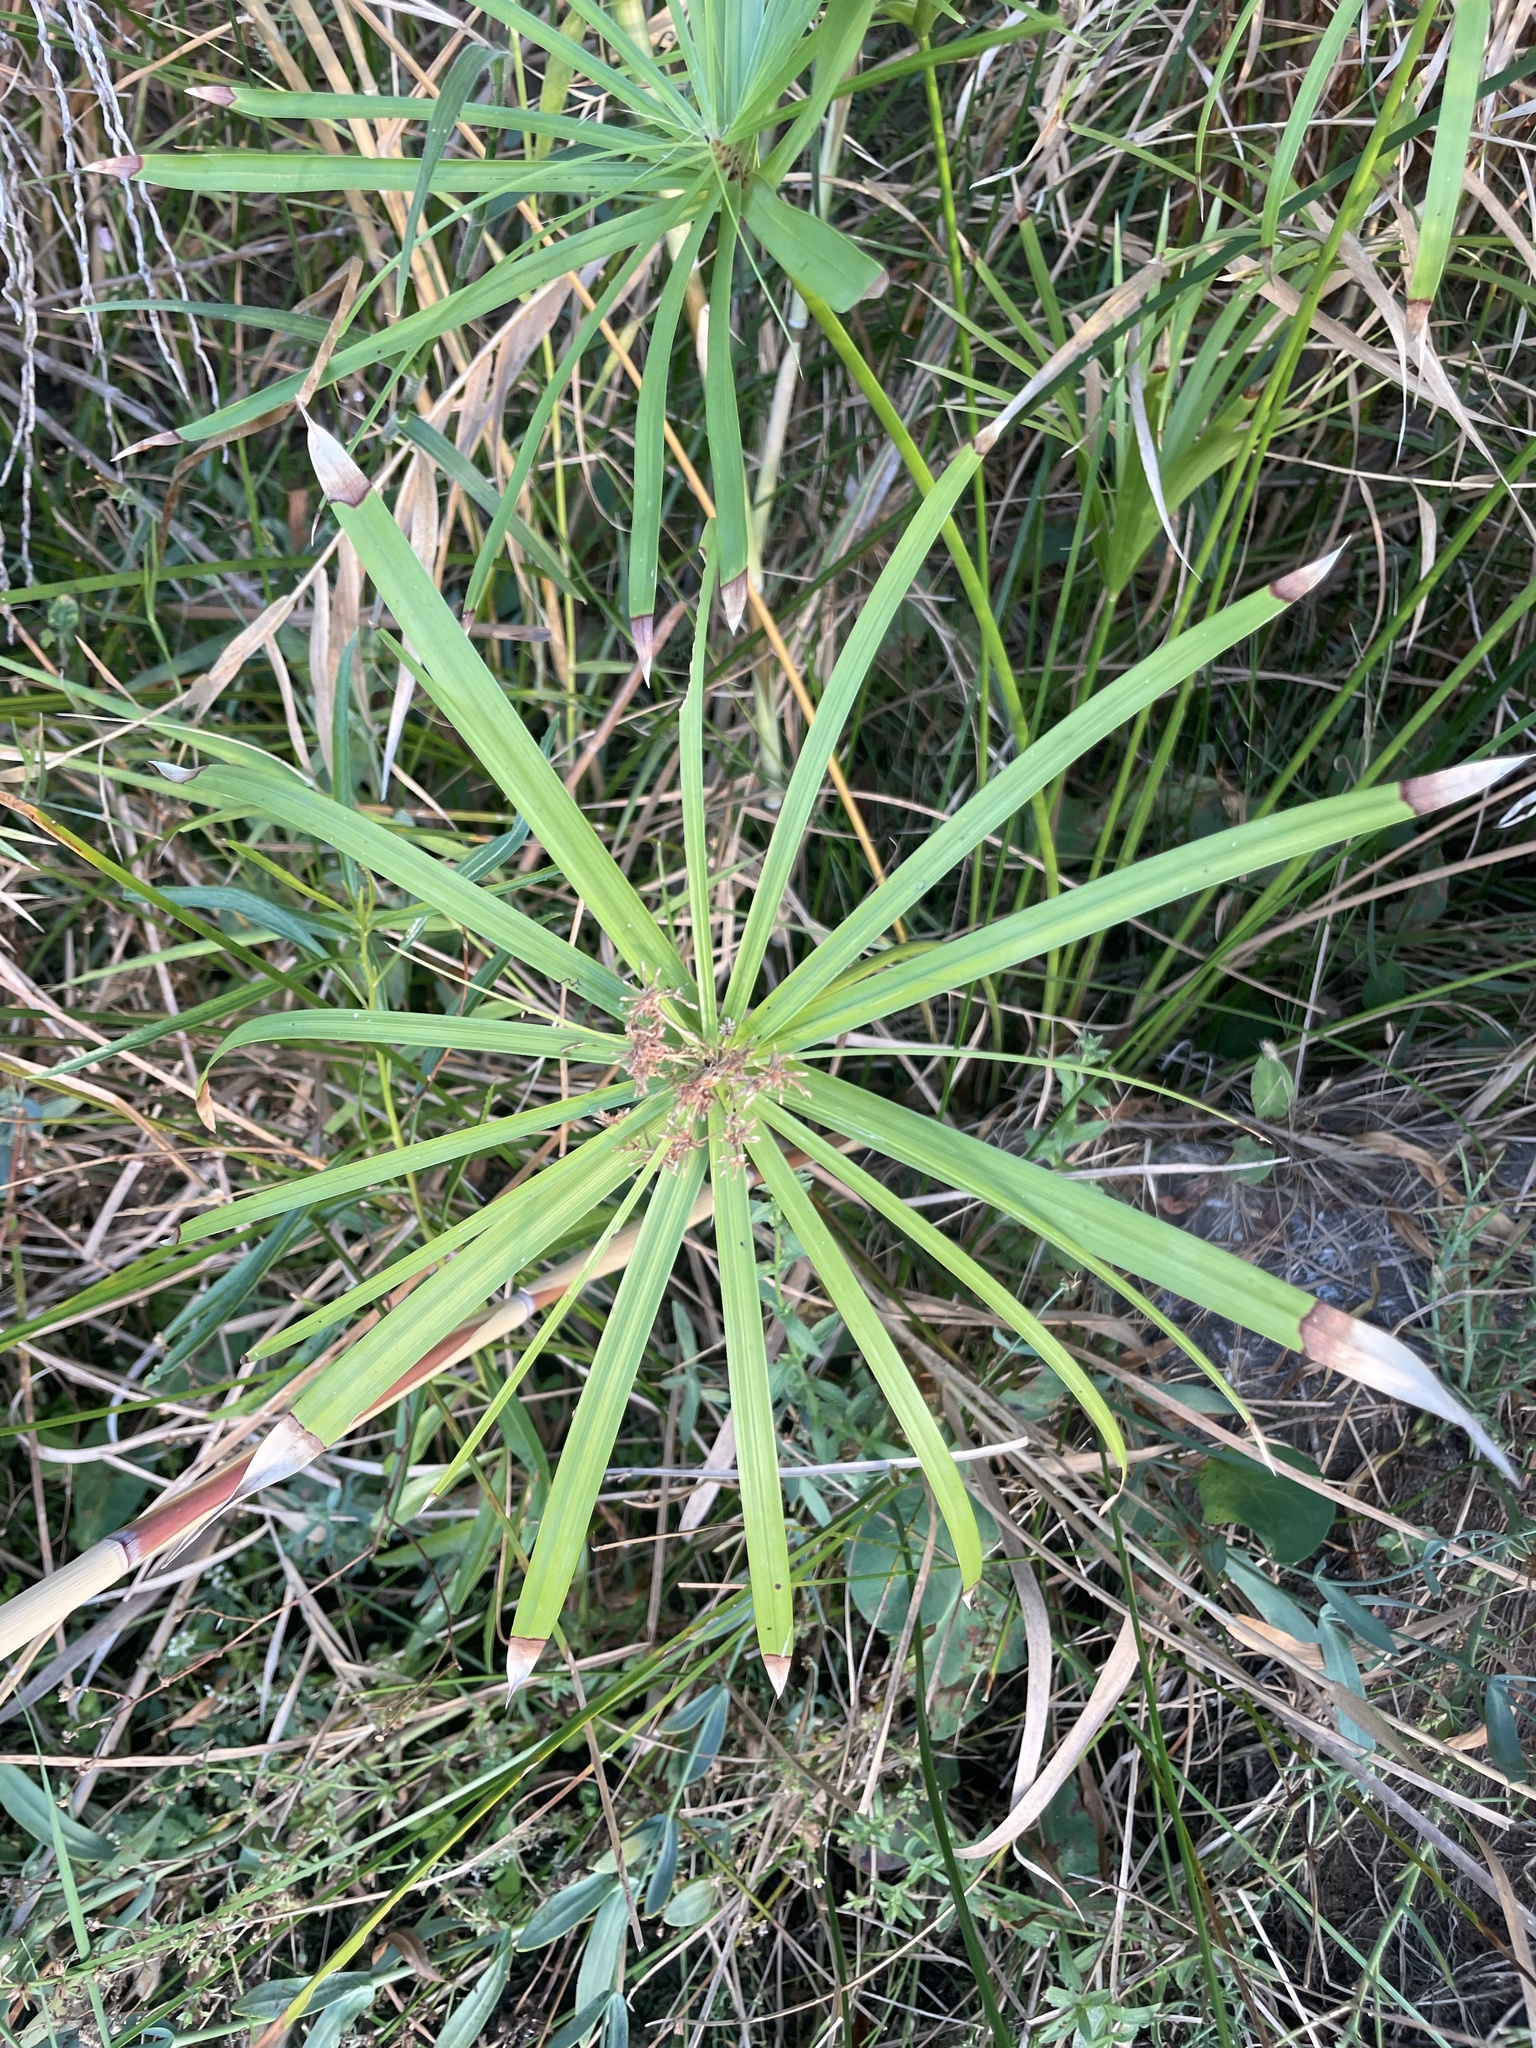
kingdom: Plantae
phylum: Tracheophyta
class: Liliopsida
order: Poales
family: Cyperaceae
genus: Cyperus
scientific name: Cyperus alternifolius
